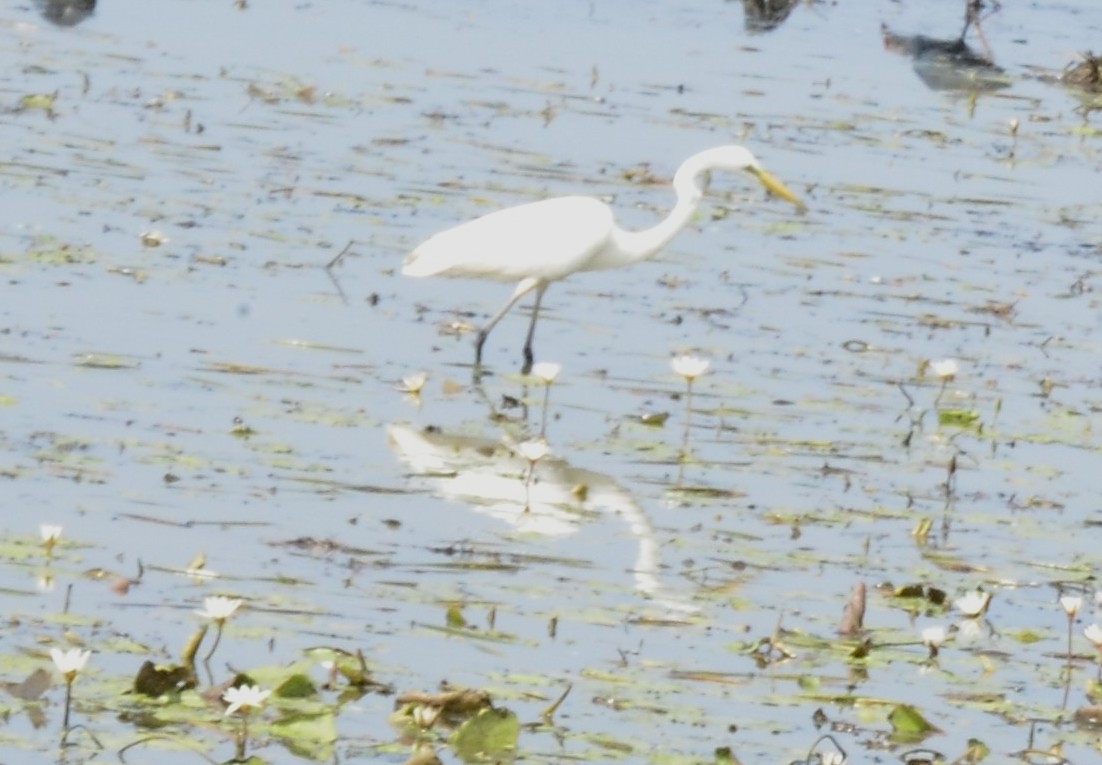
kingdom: Animalia
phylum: Chordata
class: Aves
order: Pelecaniformes
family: Ardeidae
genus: Ardea
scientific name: Ardea alba
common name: Great egret
